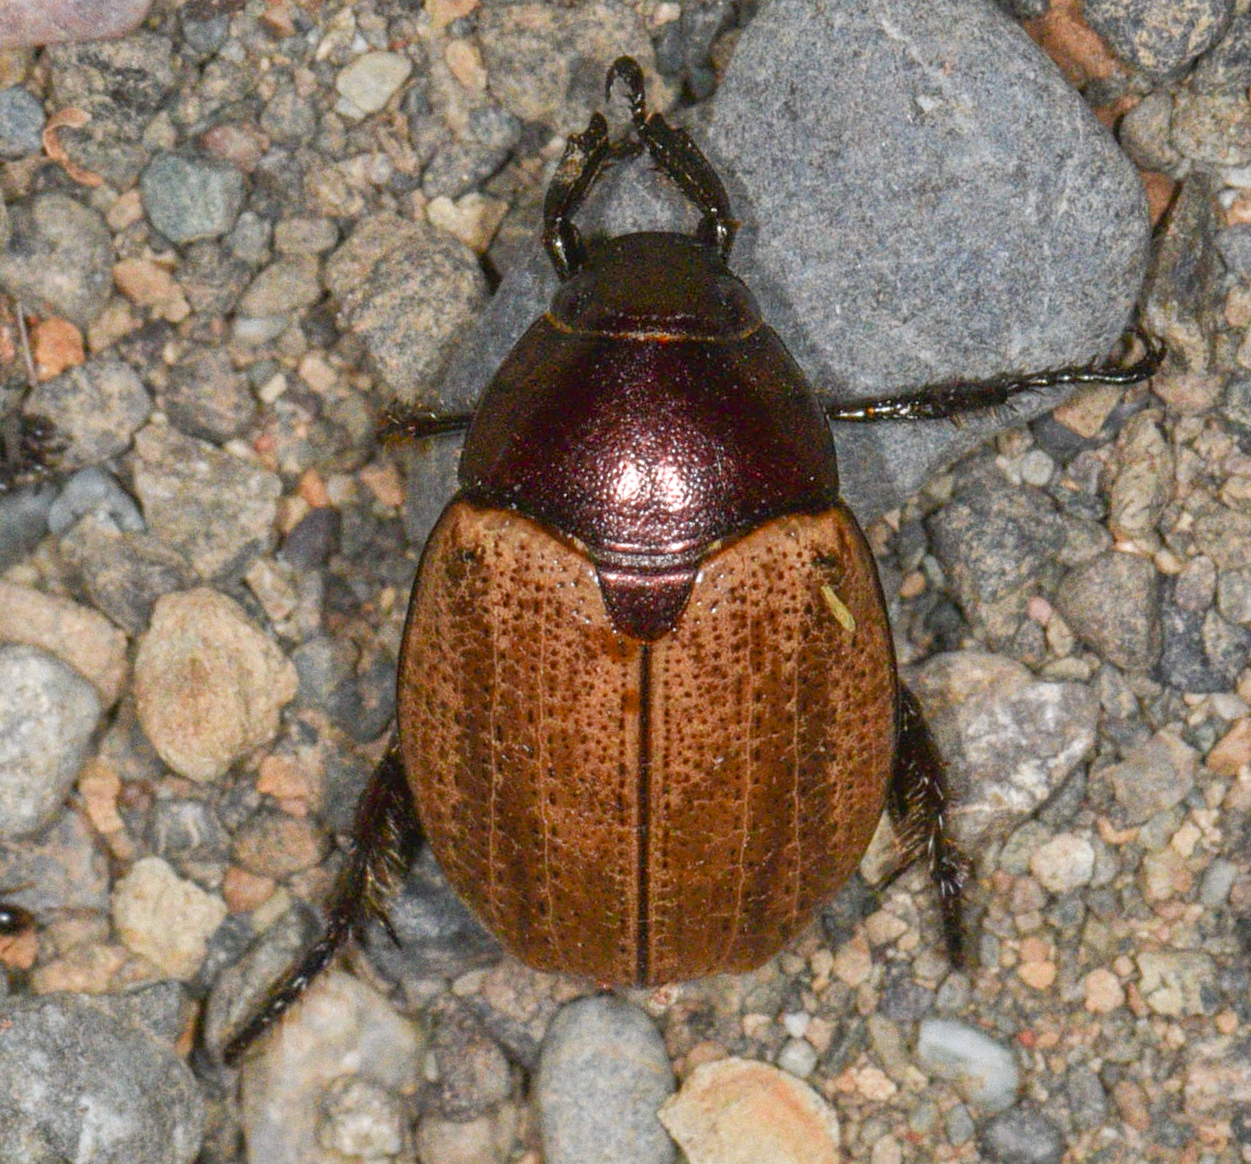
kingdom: Animalia
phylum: Arthropoda
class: Insecta
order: Coleoptera
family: Scarabaeidae
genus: Paranomala
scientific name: Paranomala valida
